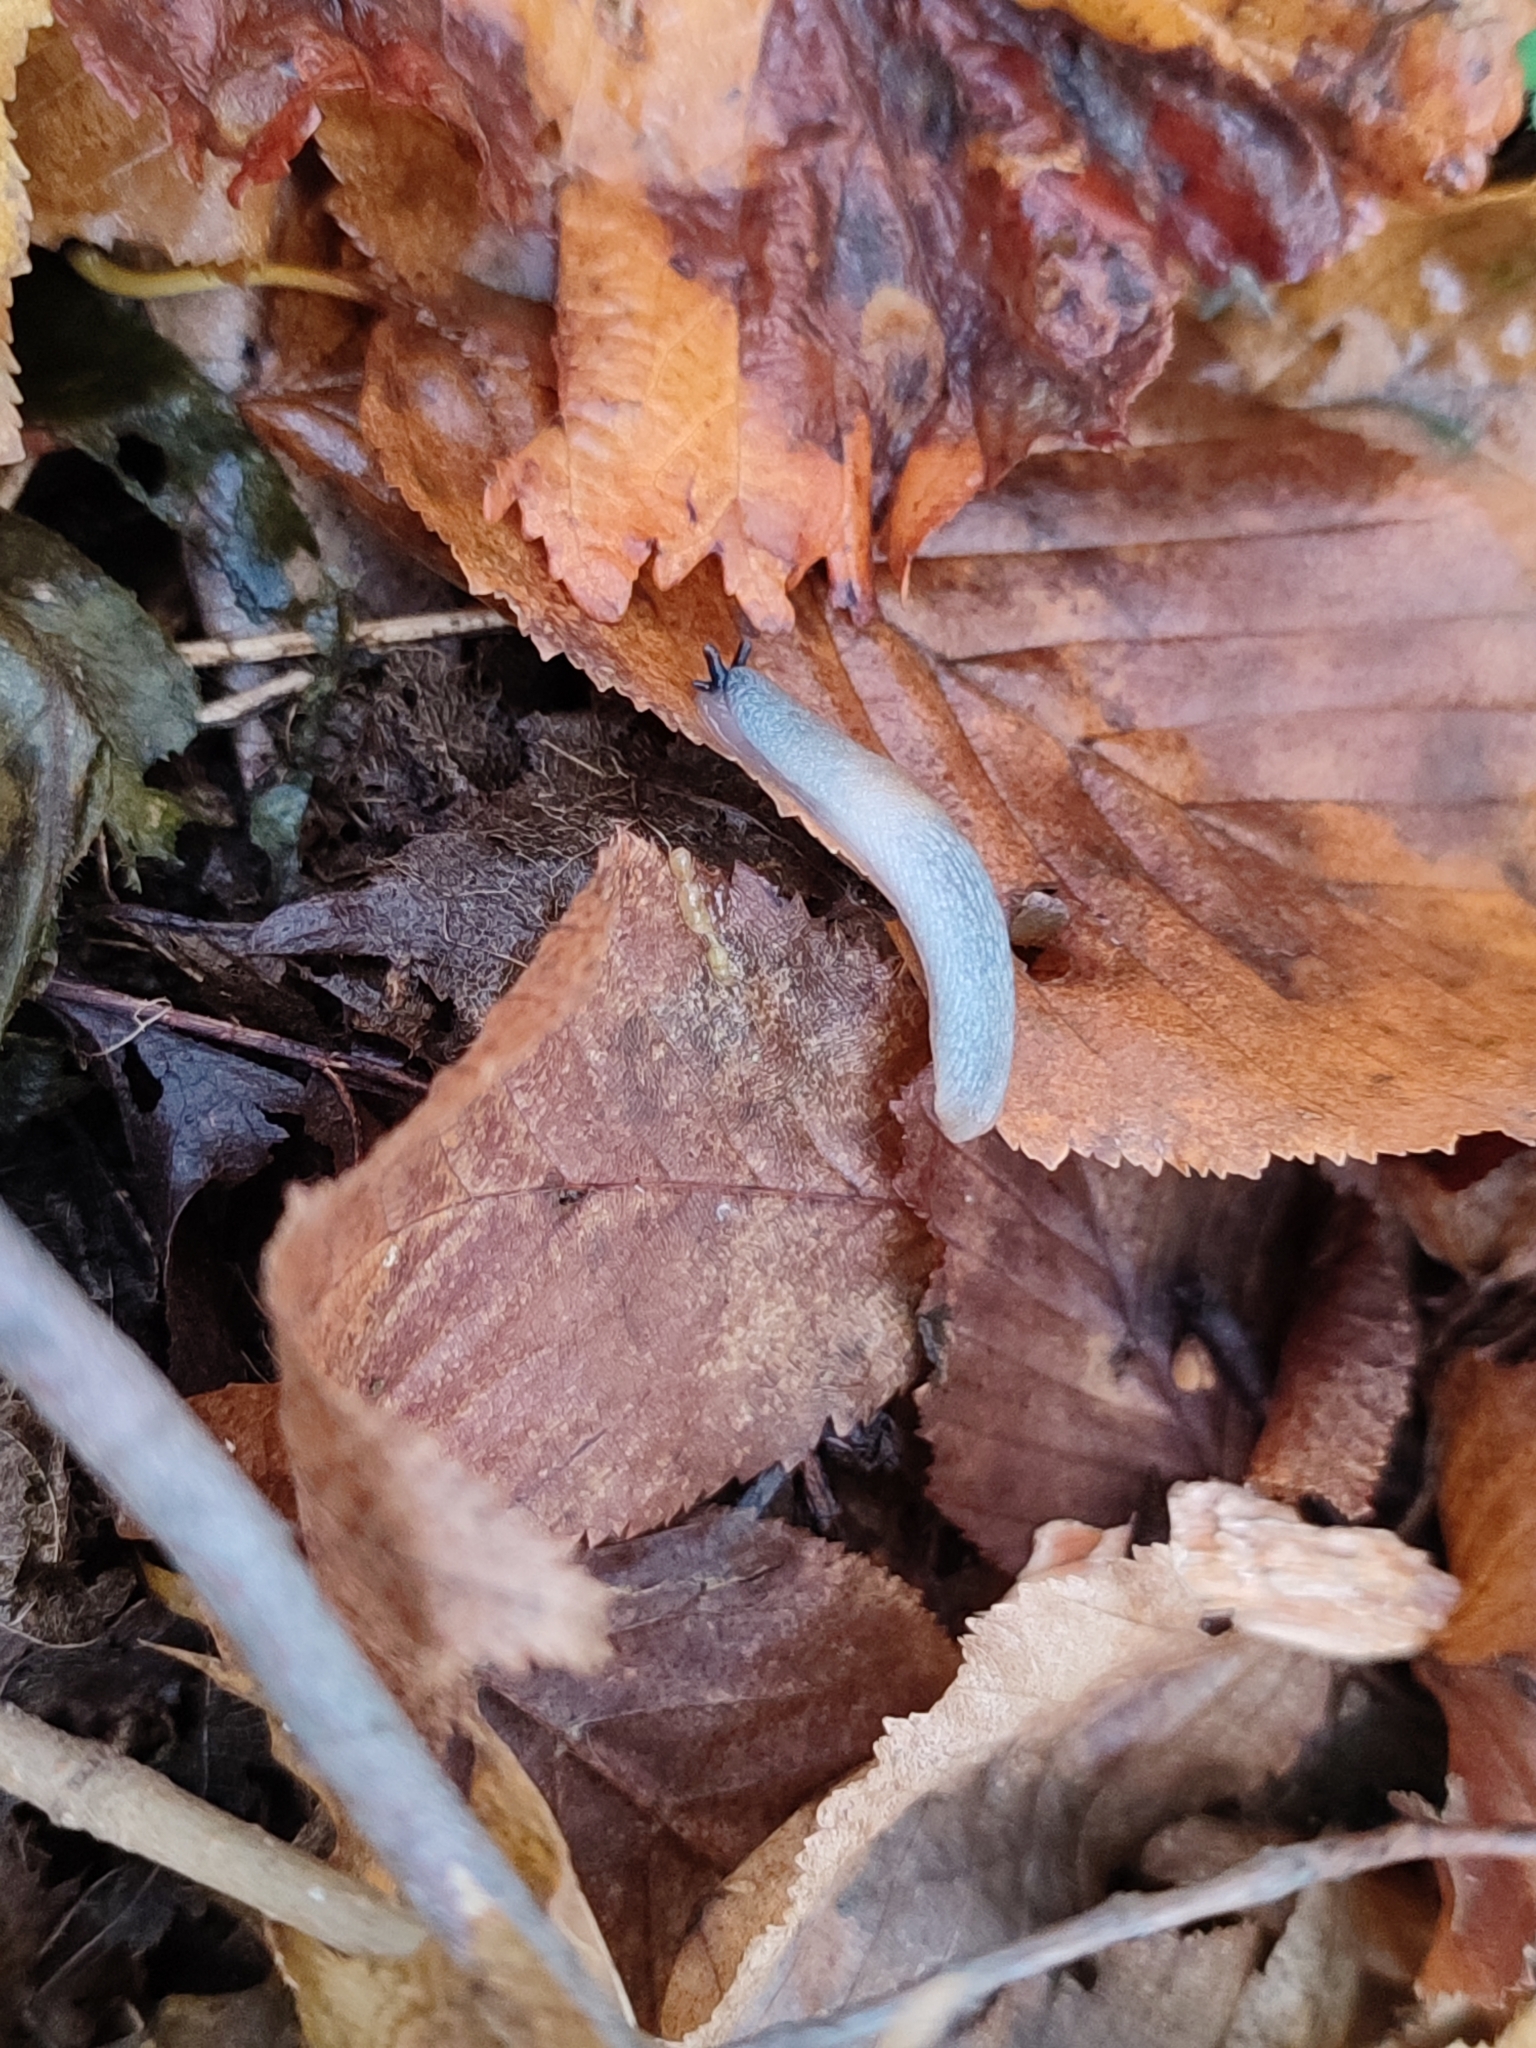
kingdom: Animalia
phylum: Mollusca
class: Gastropoda
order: Stylommatophora
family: Agriolimacidae
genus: Krynickillus
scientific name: Krynickillus melanocephalus
